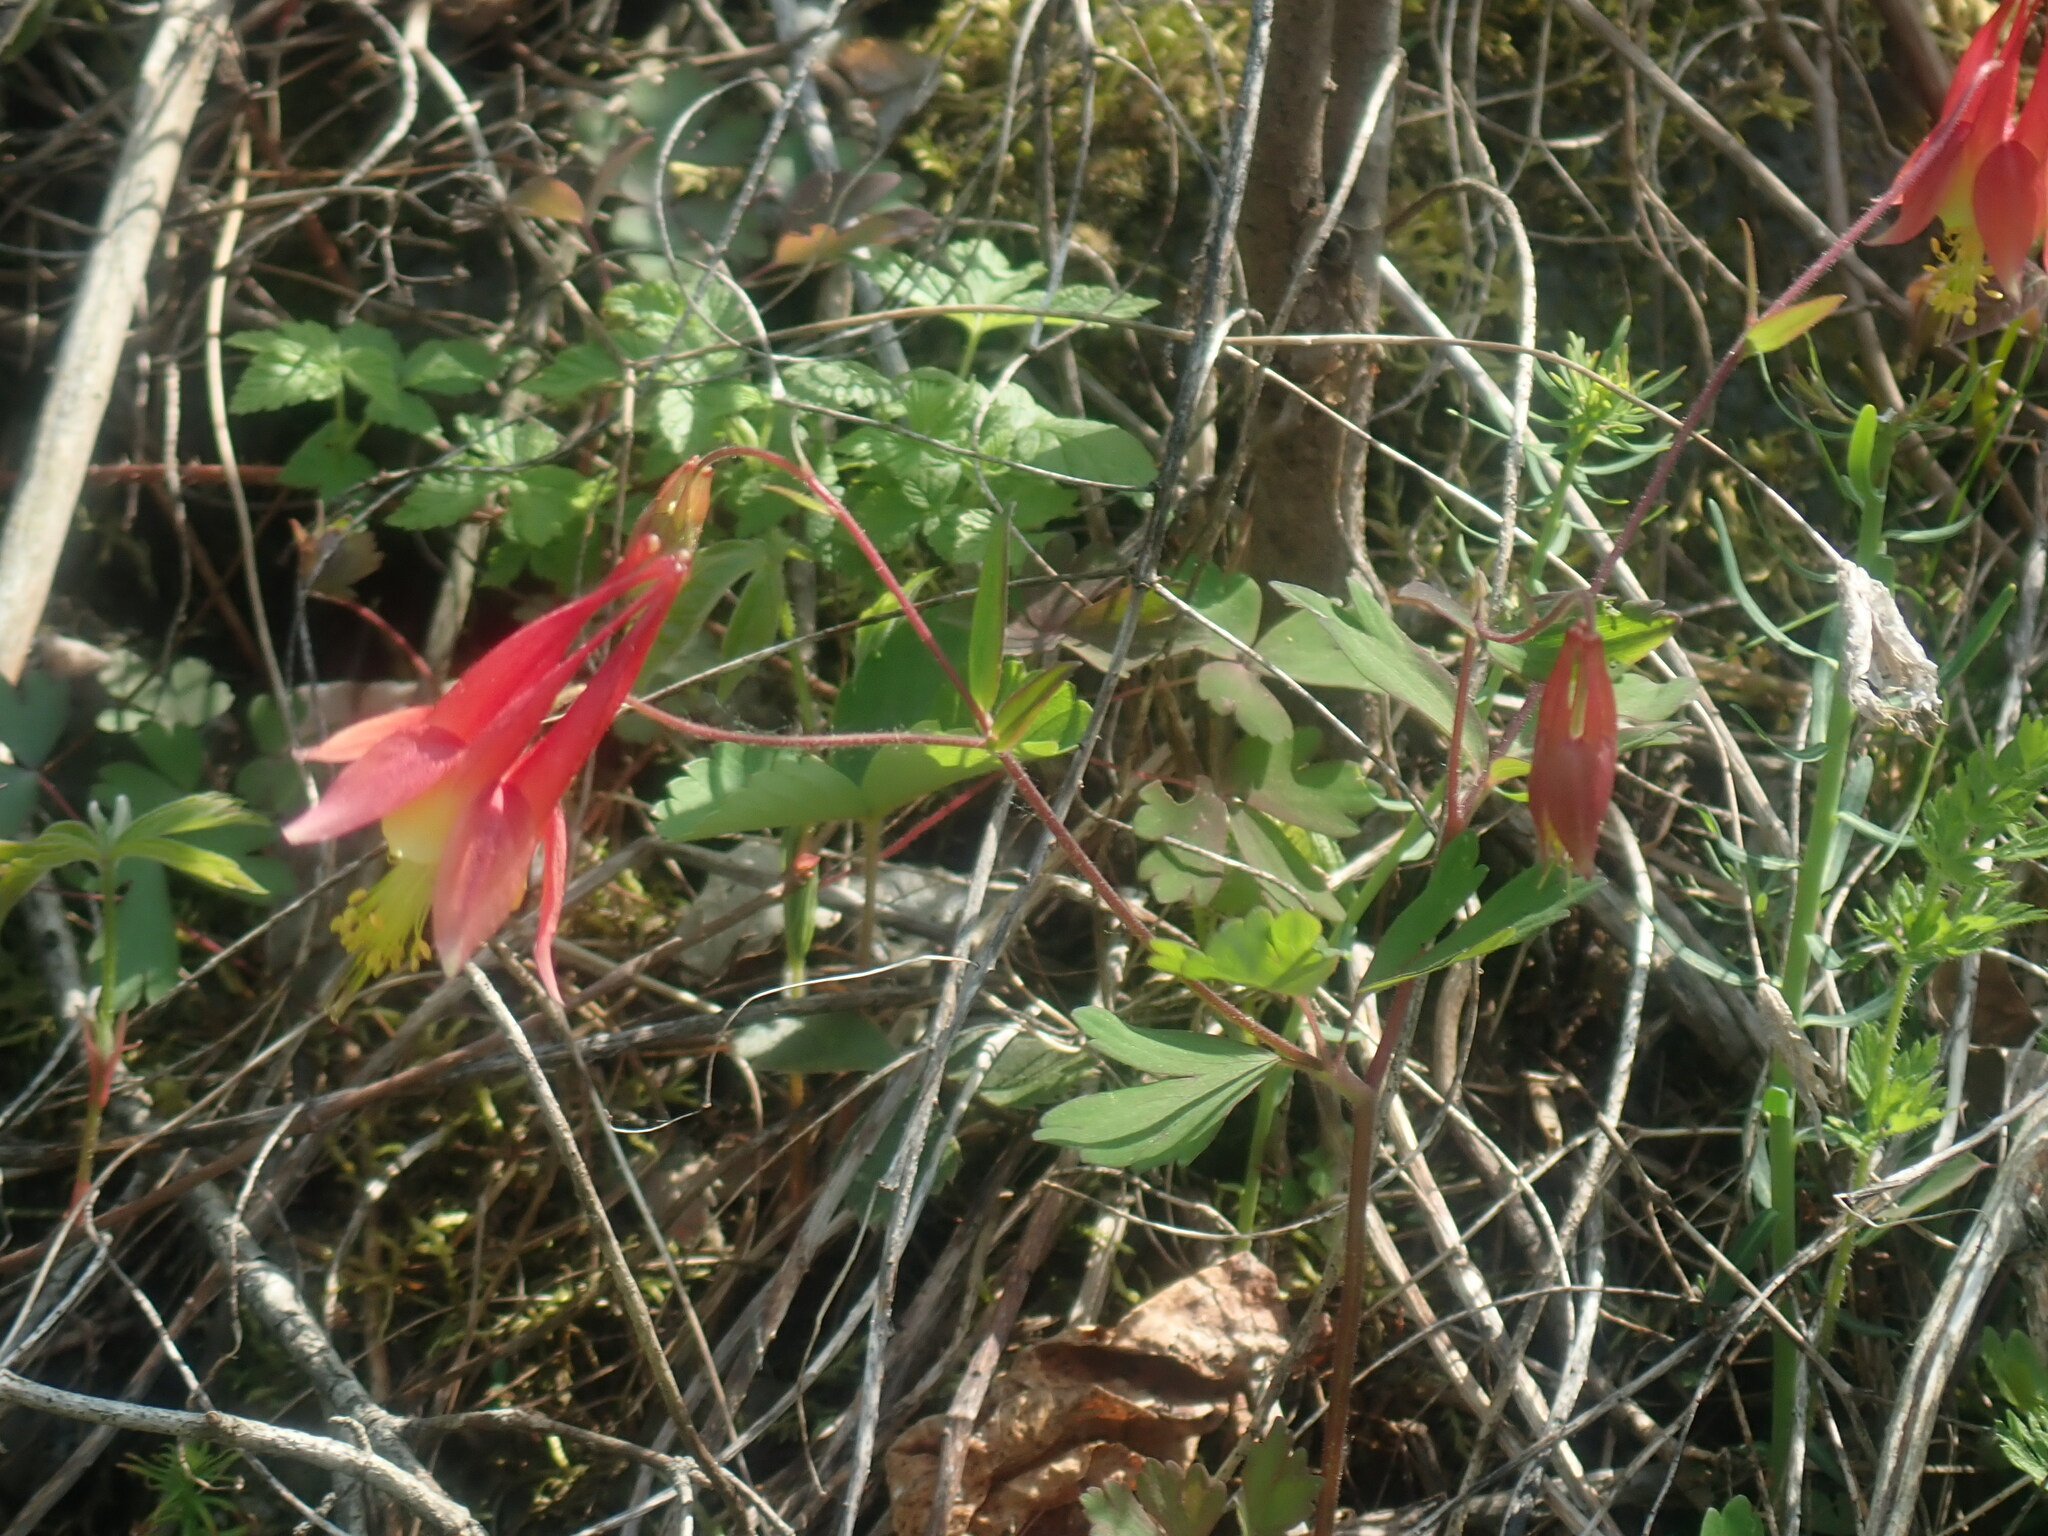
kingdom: Plantae
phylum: Tracheophyta
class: Magnoliopsida
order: Ranunculales
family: Ranunculaceae
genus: Aquilegia
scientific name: Aquilegia canadensis
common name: American columbine
